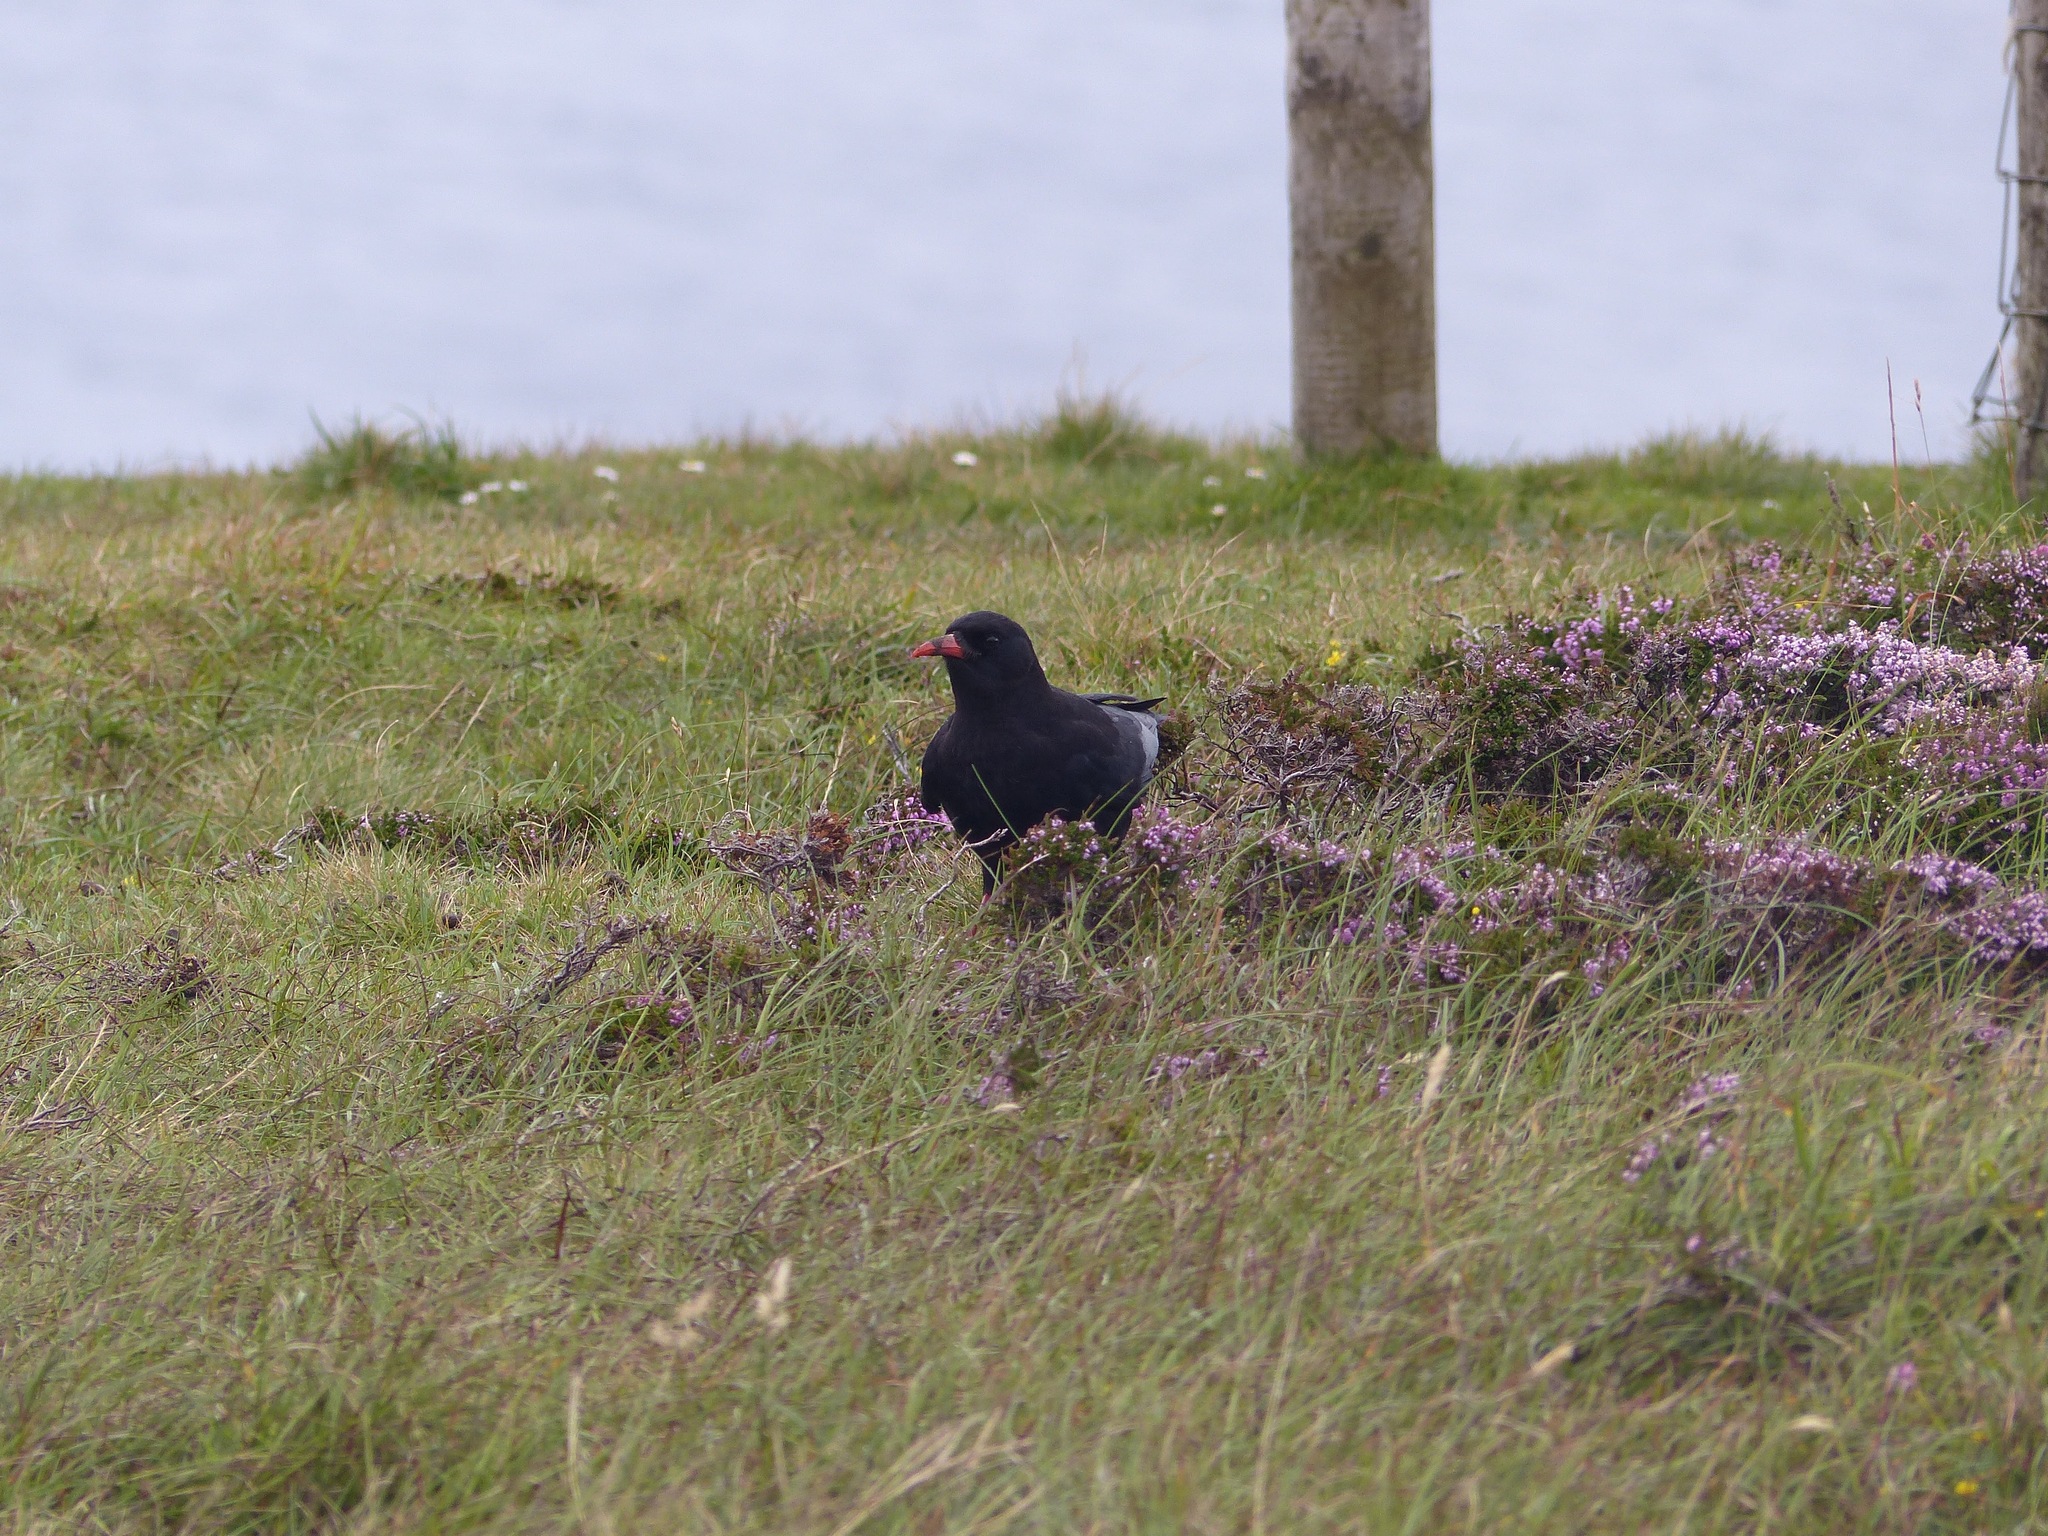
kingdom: Animalia
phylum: Chordata
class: Aves
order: Passeriformes
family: Corvidae
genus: Pyrrhocorax
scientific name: Pyrrhocorax pyrrhocorax
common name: Red-billed chough
